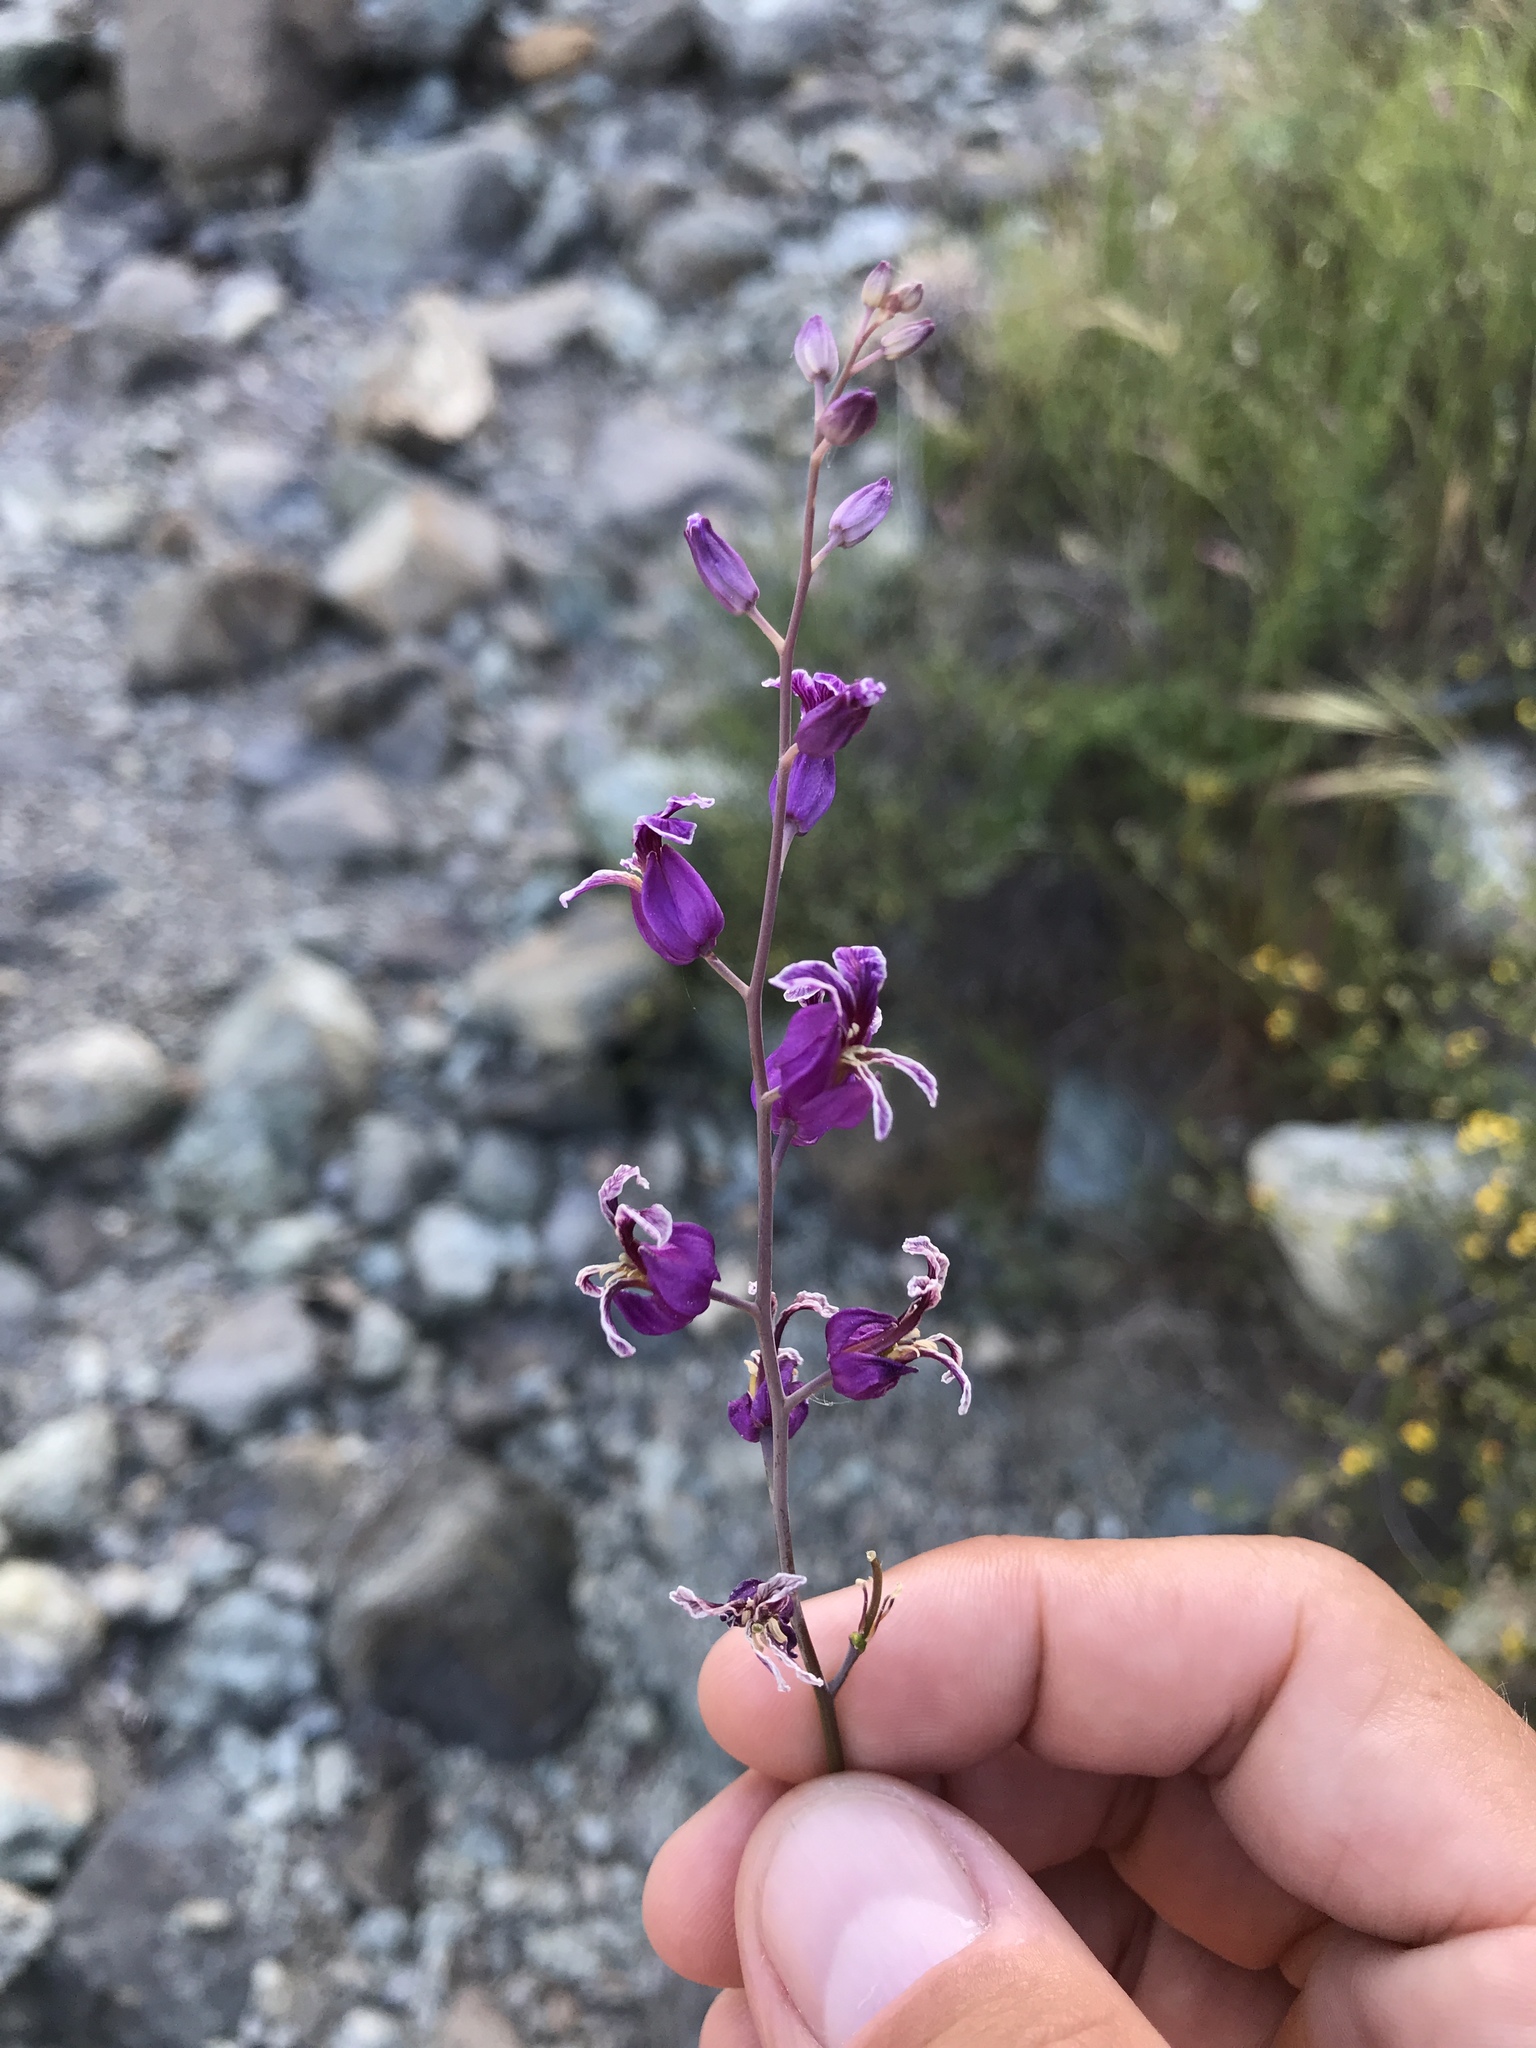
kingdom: Plantae
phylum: Tracheophyta
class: Magnoliopsida
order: Brassicales
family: Brassicaceae
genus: Streptanthus
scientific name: Streptanthus glandulosus
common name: Jewel-flower
